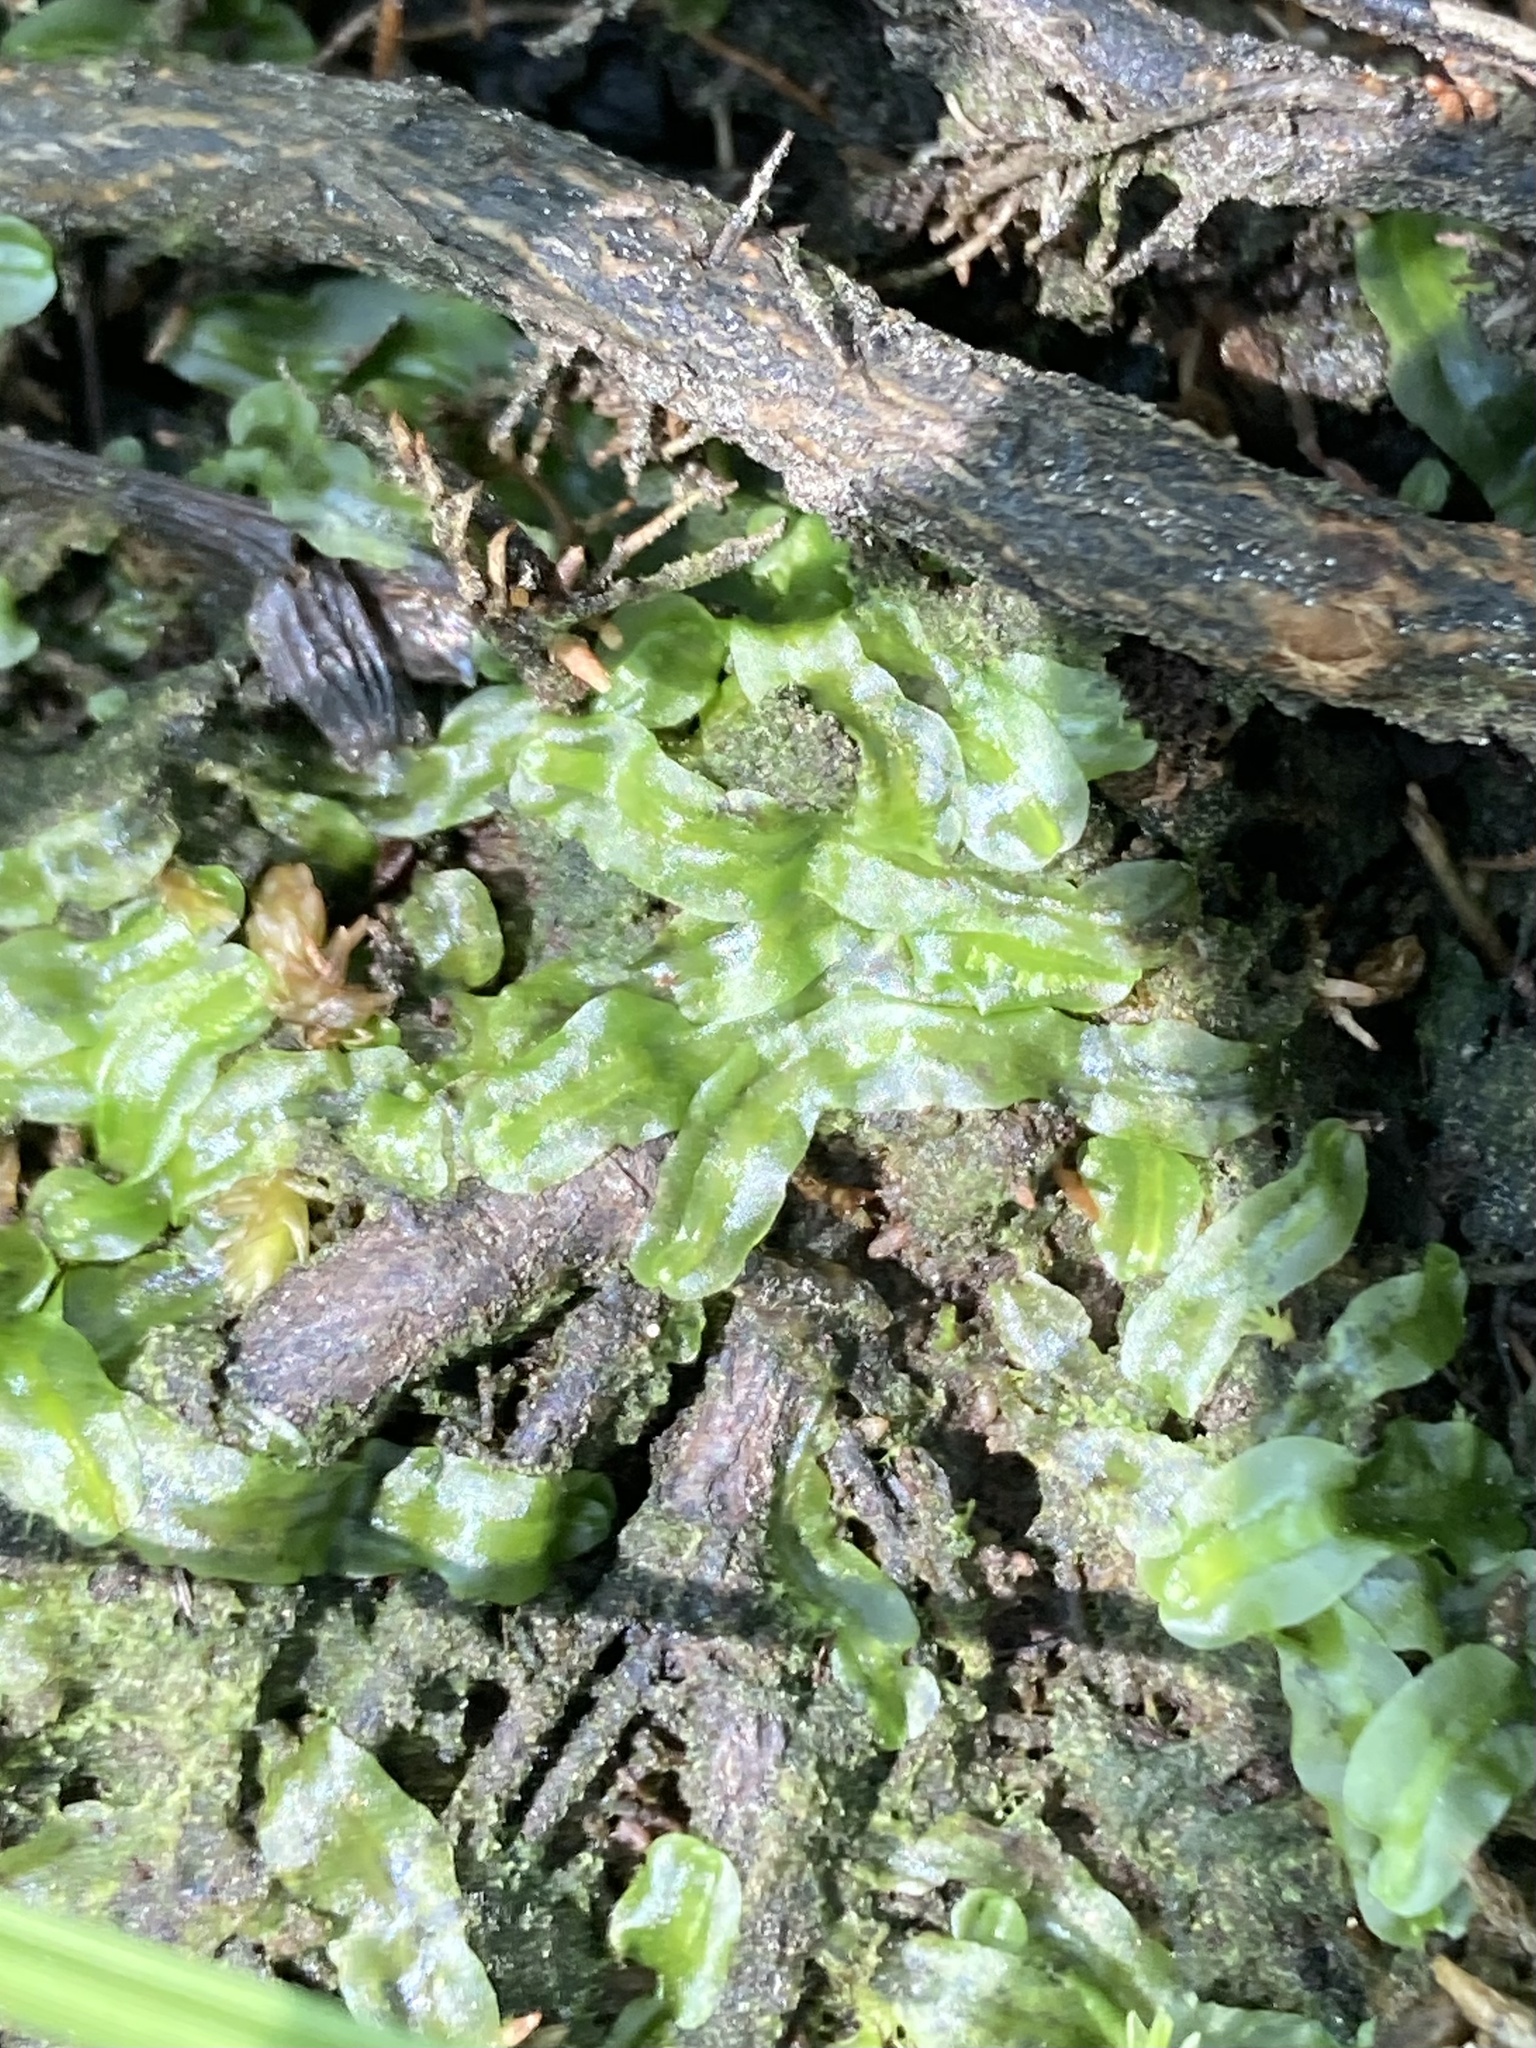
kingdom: Plantae
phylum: Marchantiophyta
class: Jungermanniopsida
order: Pallaviciniales
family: Pallaviciniaceae
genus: Pallavicinia
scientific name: Pallavicinia lyellii
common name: Veilwort
